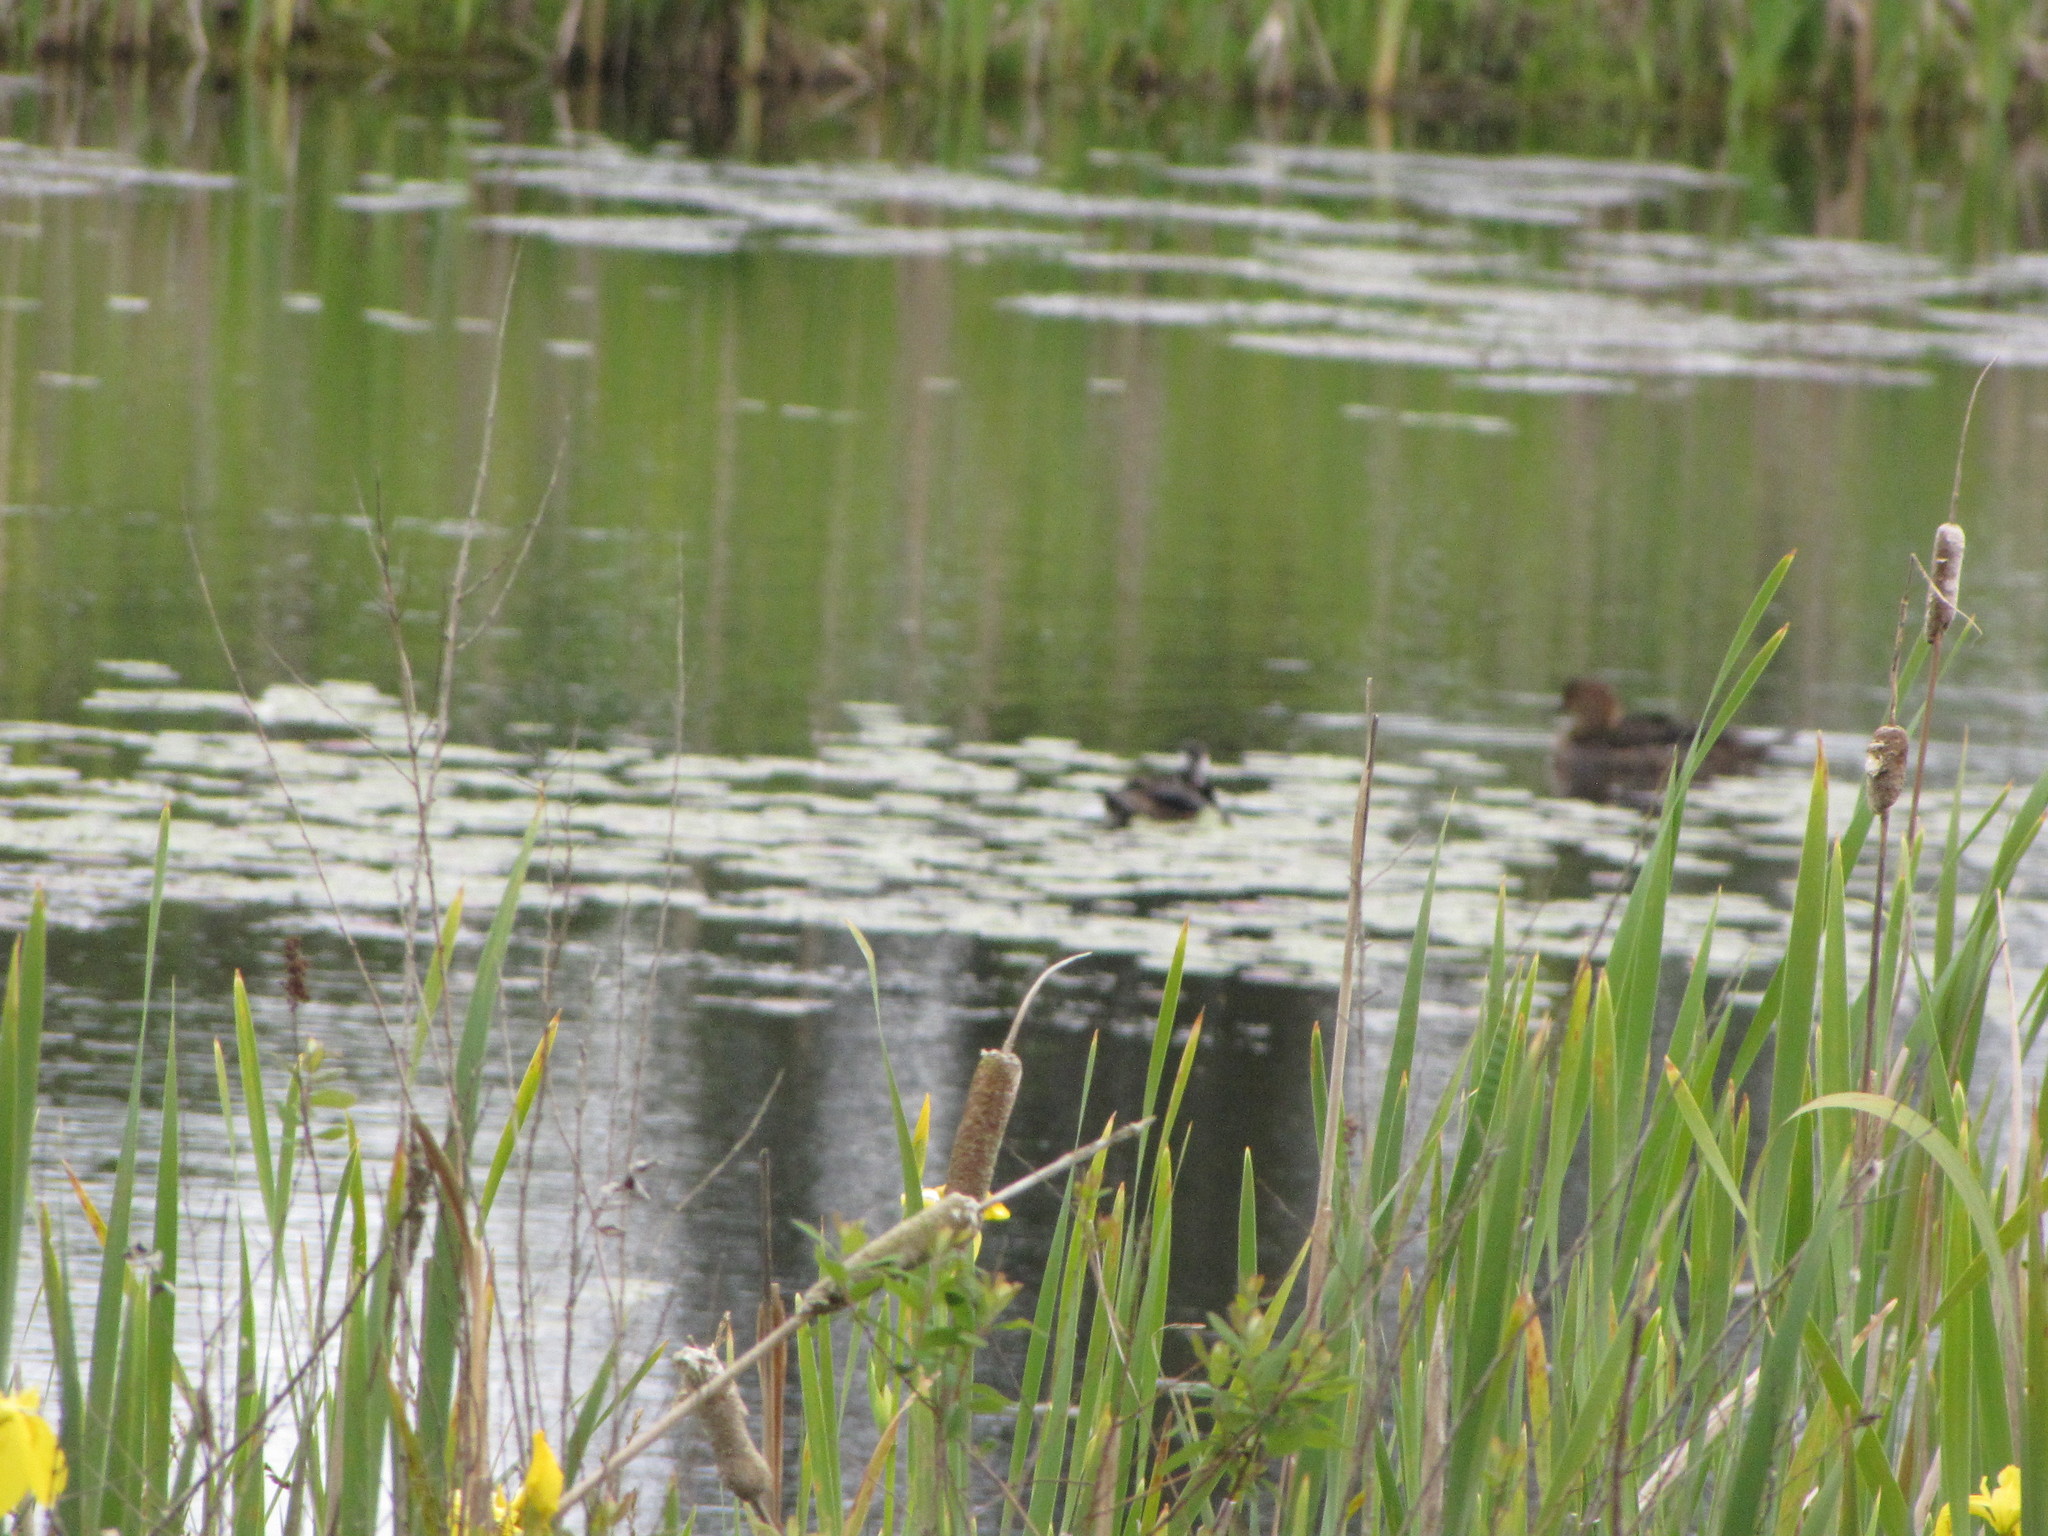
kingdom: Animalia
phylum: Chordata
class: Aves
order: Anseriformes
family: Anatidae
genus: Lophodytes
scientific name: Lophodytes cucullatus
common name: Hooded merganser
